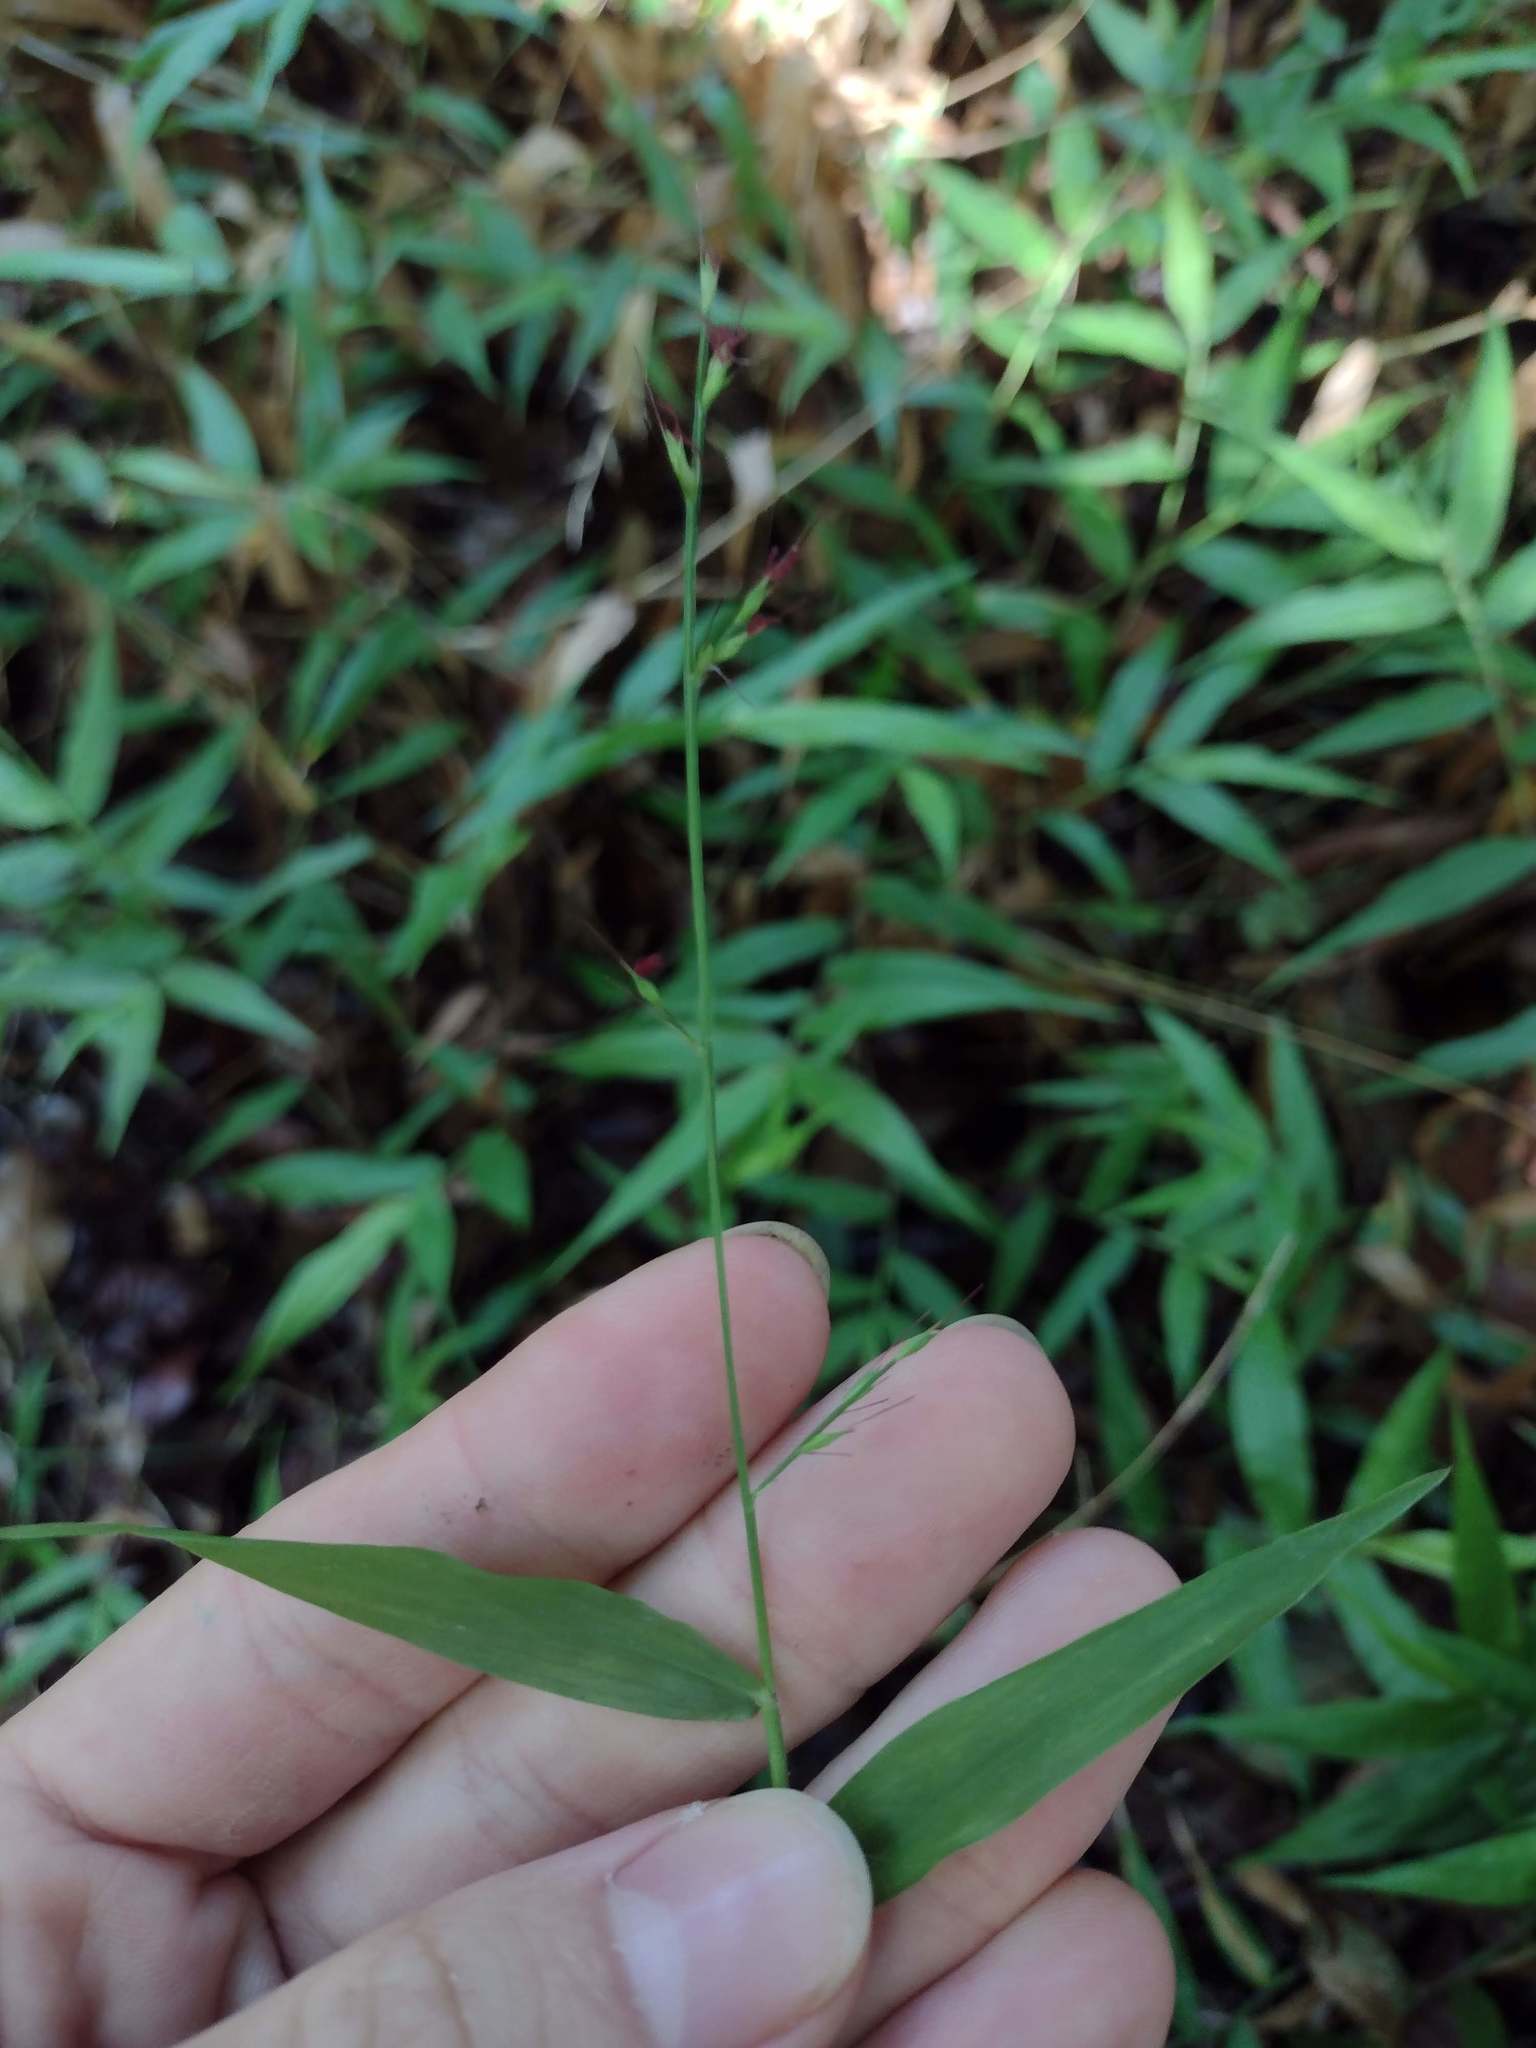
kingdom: Plantae
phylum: Tracheophyta
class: Liliopsida
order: Poales
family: Poaceae
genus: Oplismenus
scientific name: Oplismenus hirtellus
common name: Basketgrass
